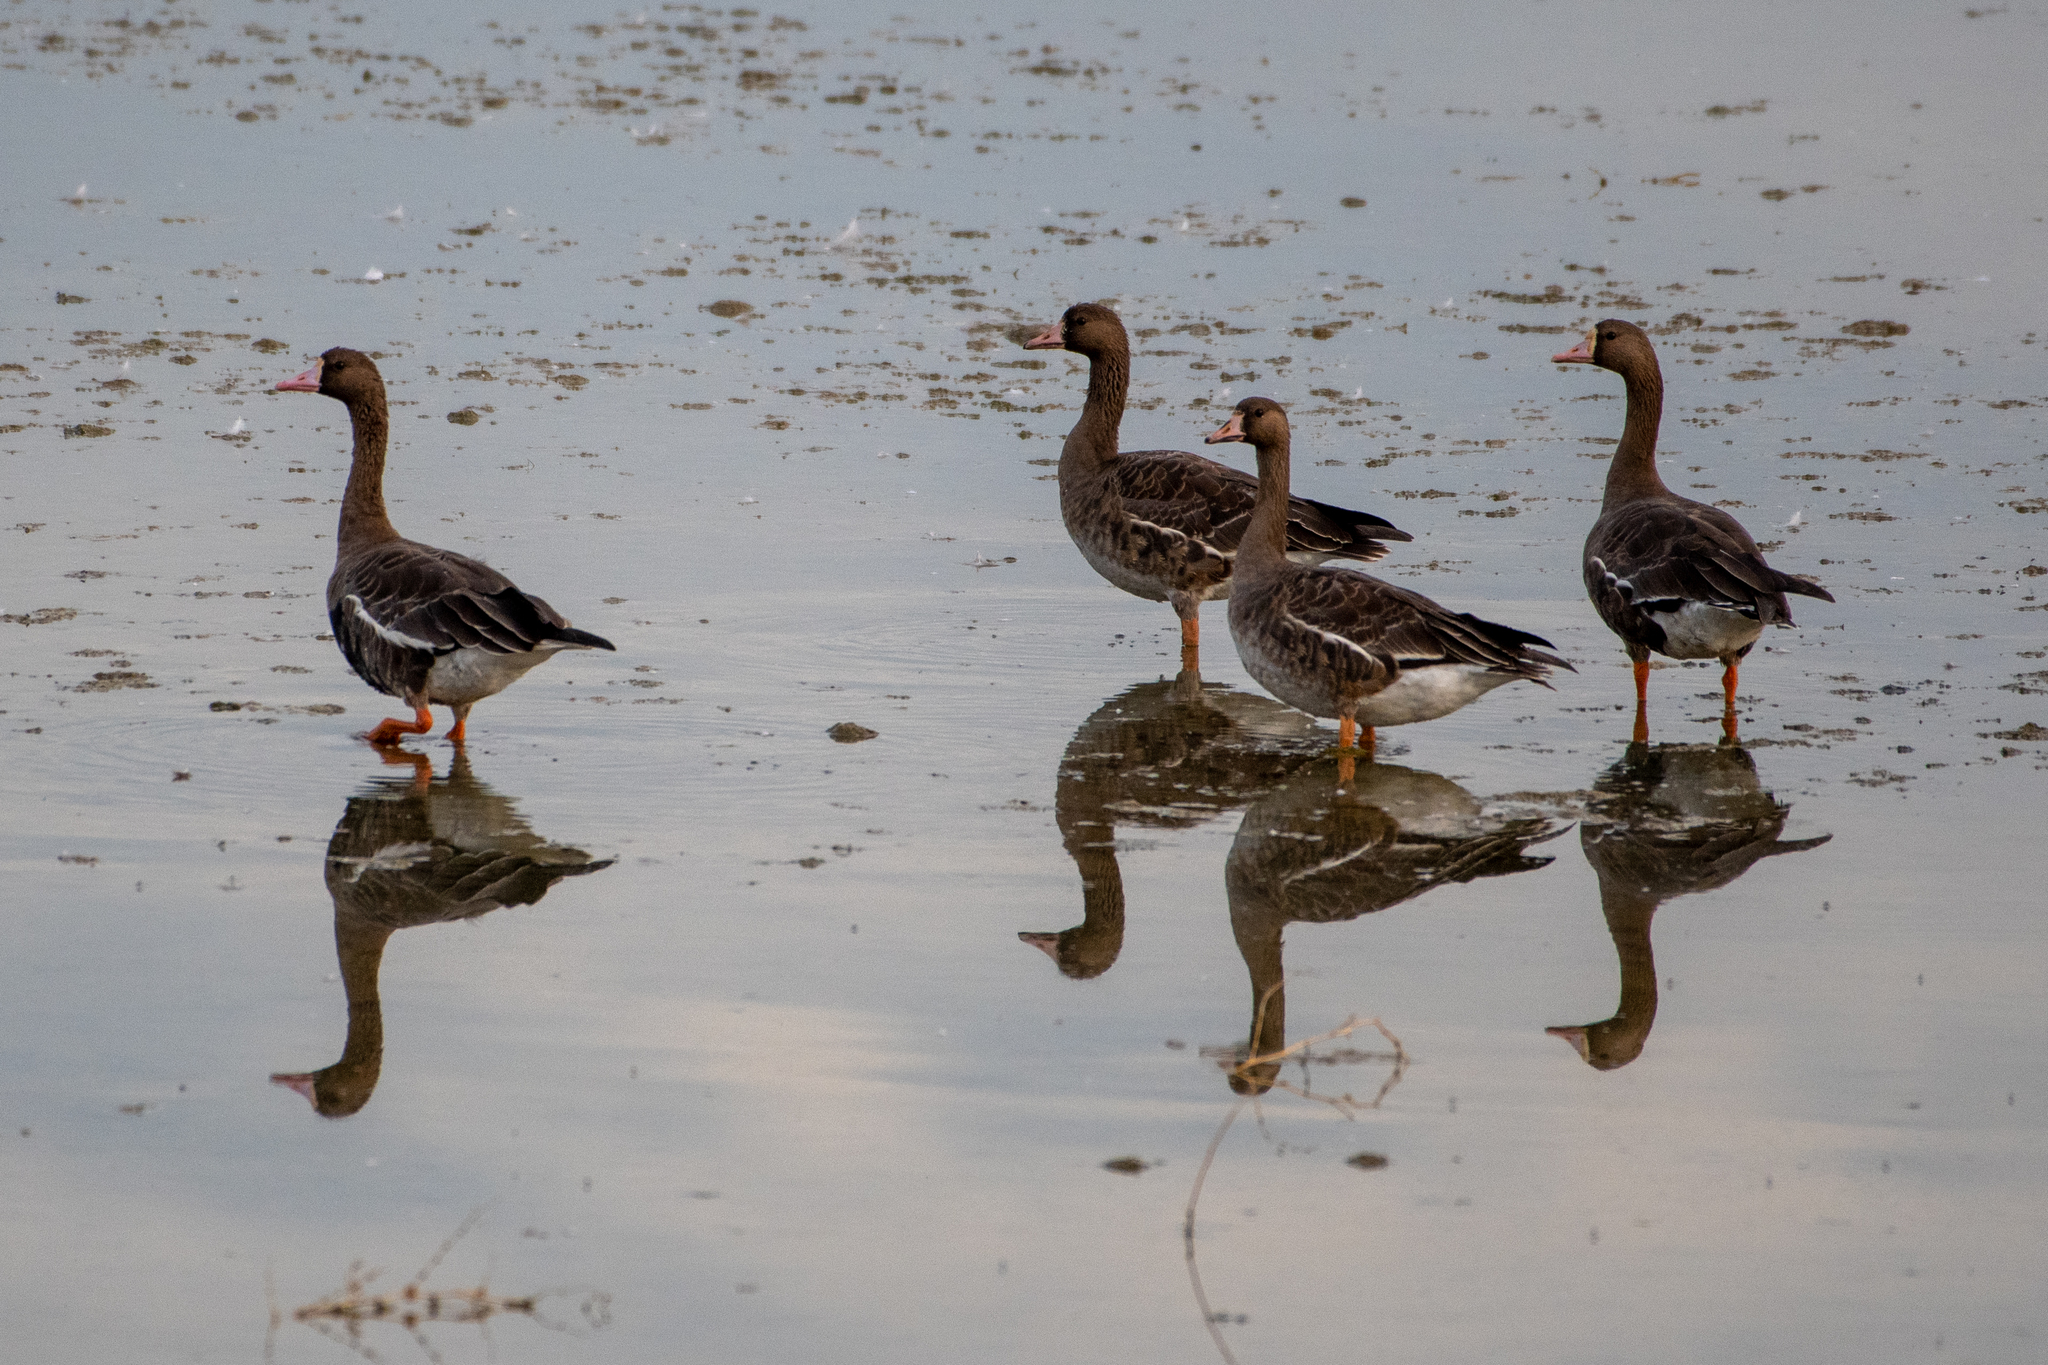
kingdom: Animalia
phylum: Chordata
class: Aves
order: Anseriformes
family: Anatidae
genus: Anser
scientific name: Anser albifrons
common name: Greater white-fronted goose
